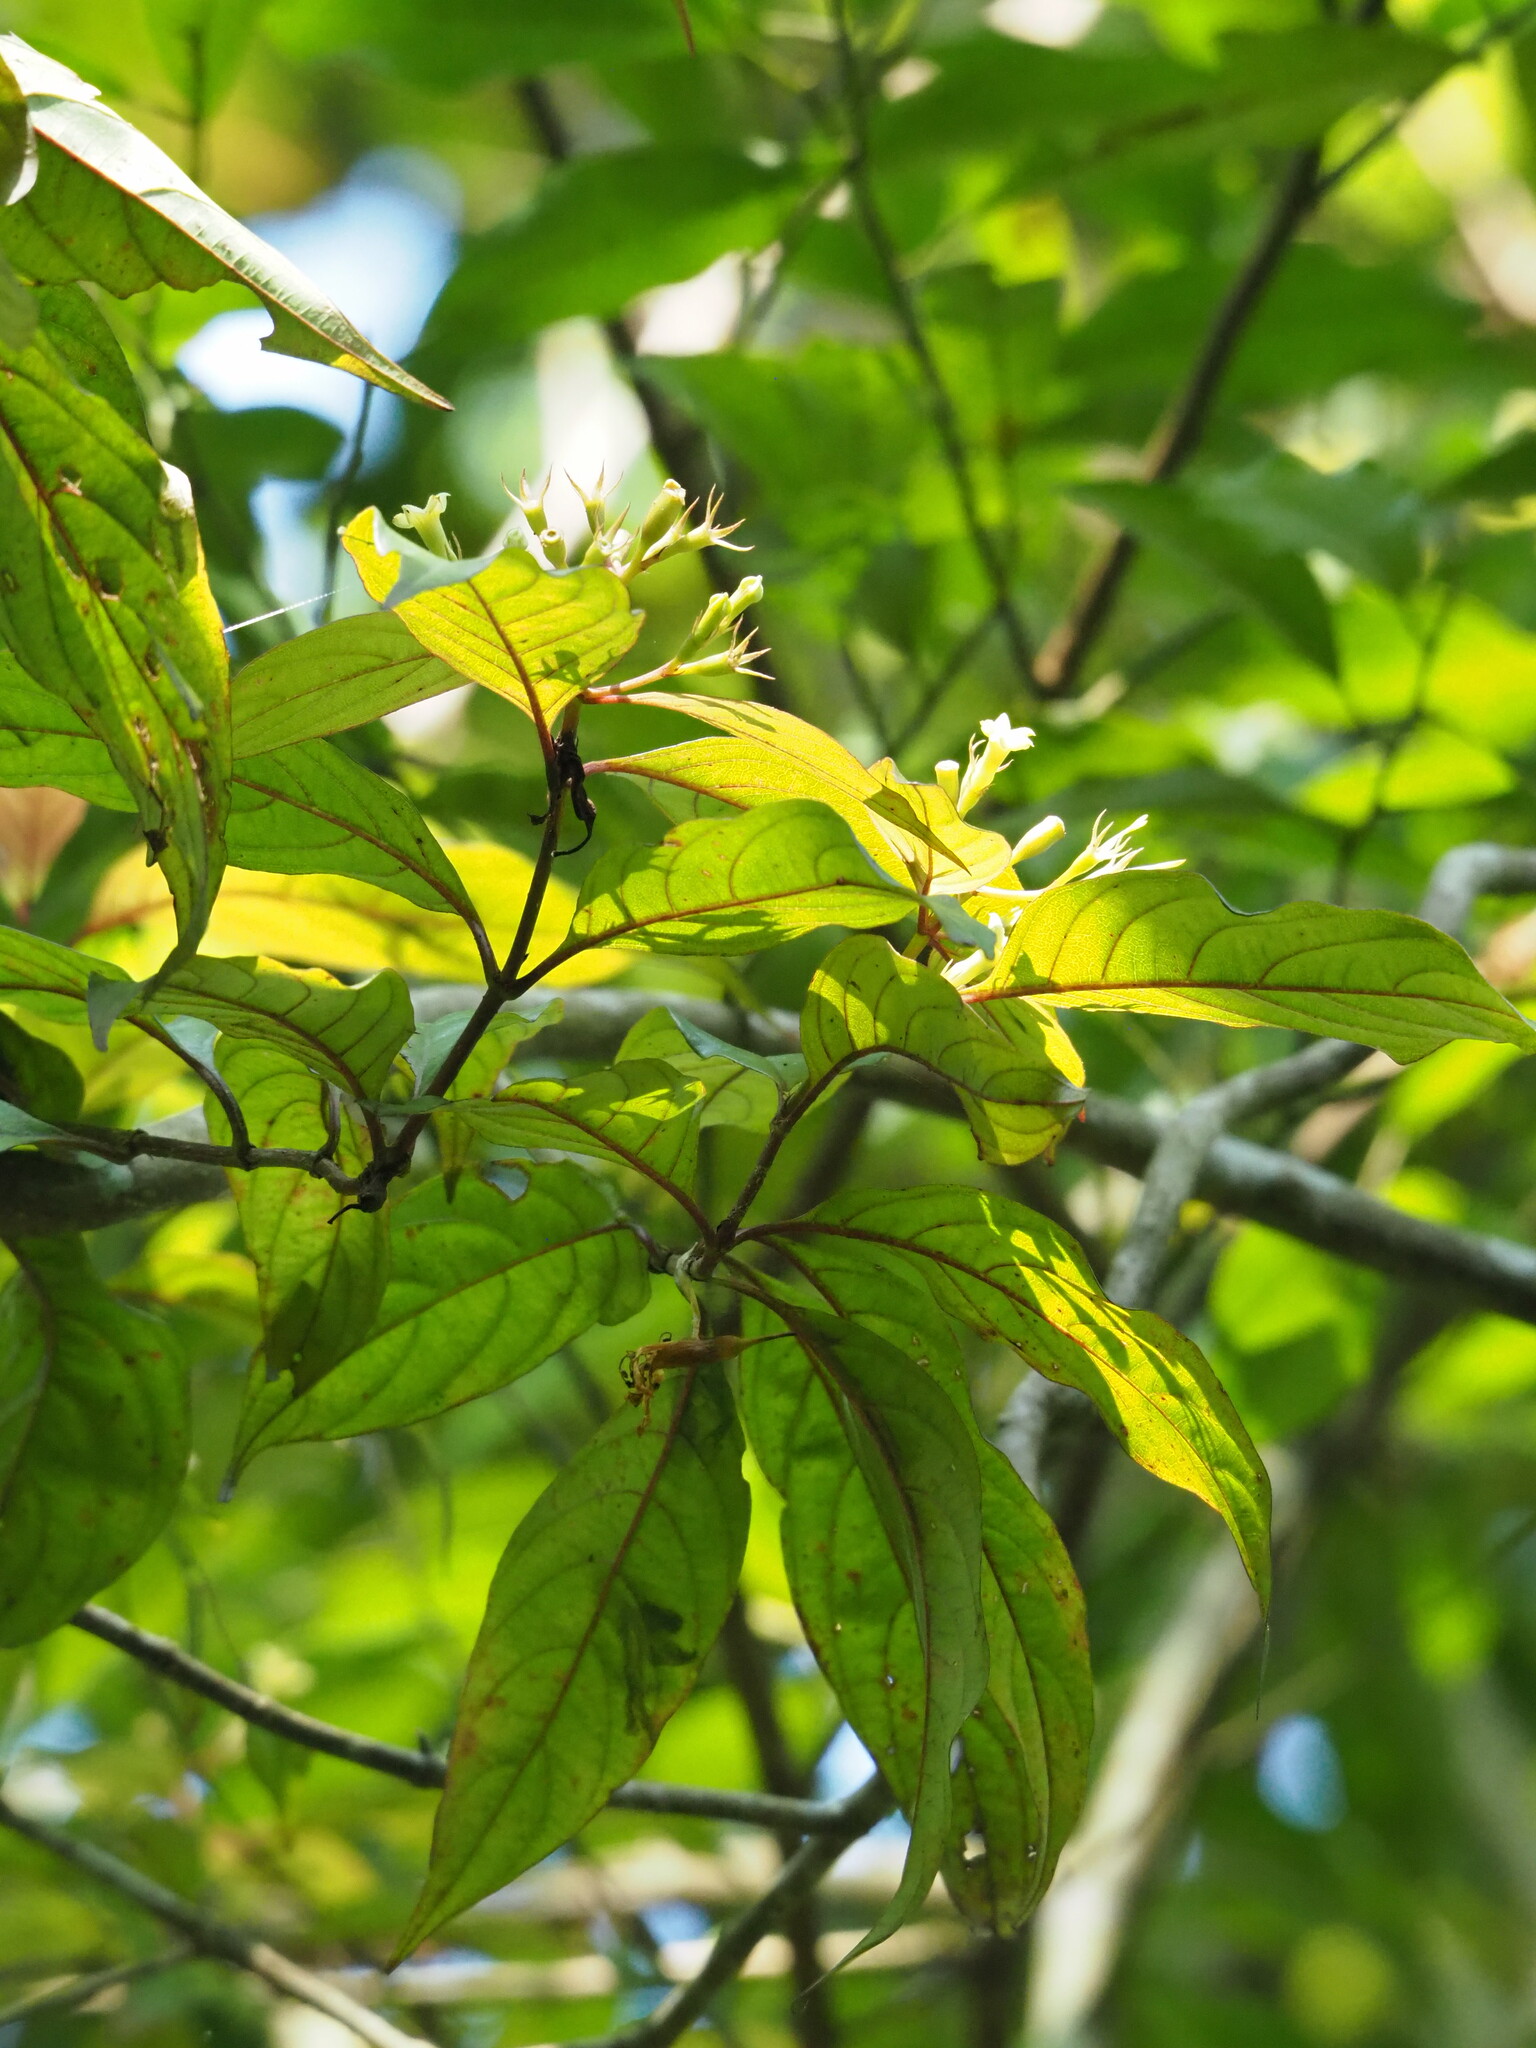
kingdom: Plantae
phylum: Tracheophyta
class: Magnoliopsida
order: Gentianales
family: Rubiaceae
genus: Mussaenda
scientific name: Mussaenda parviflora
